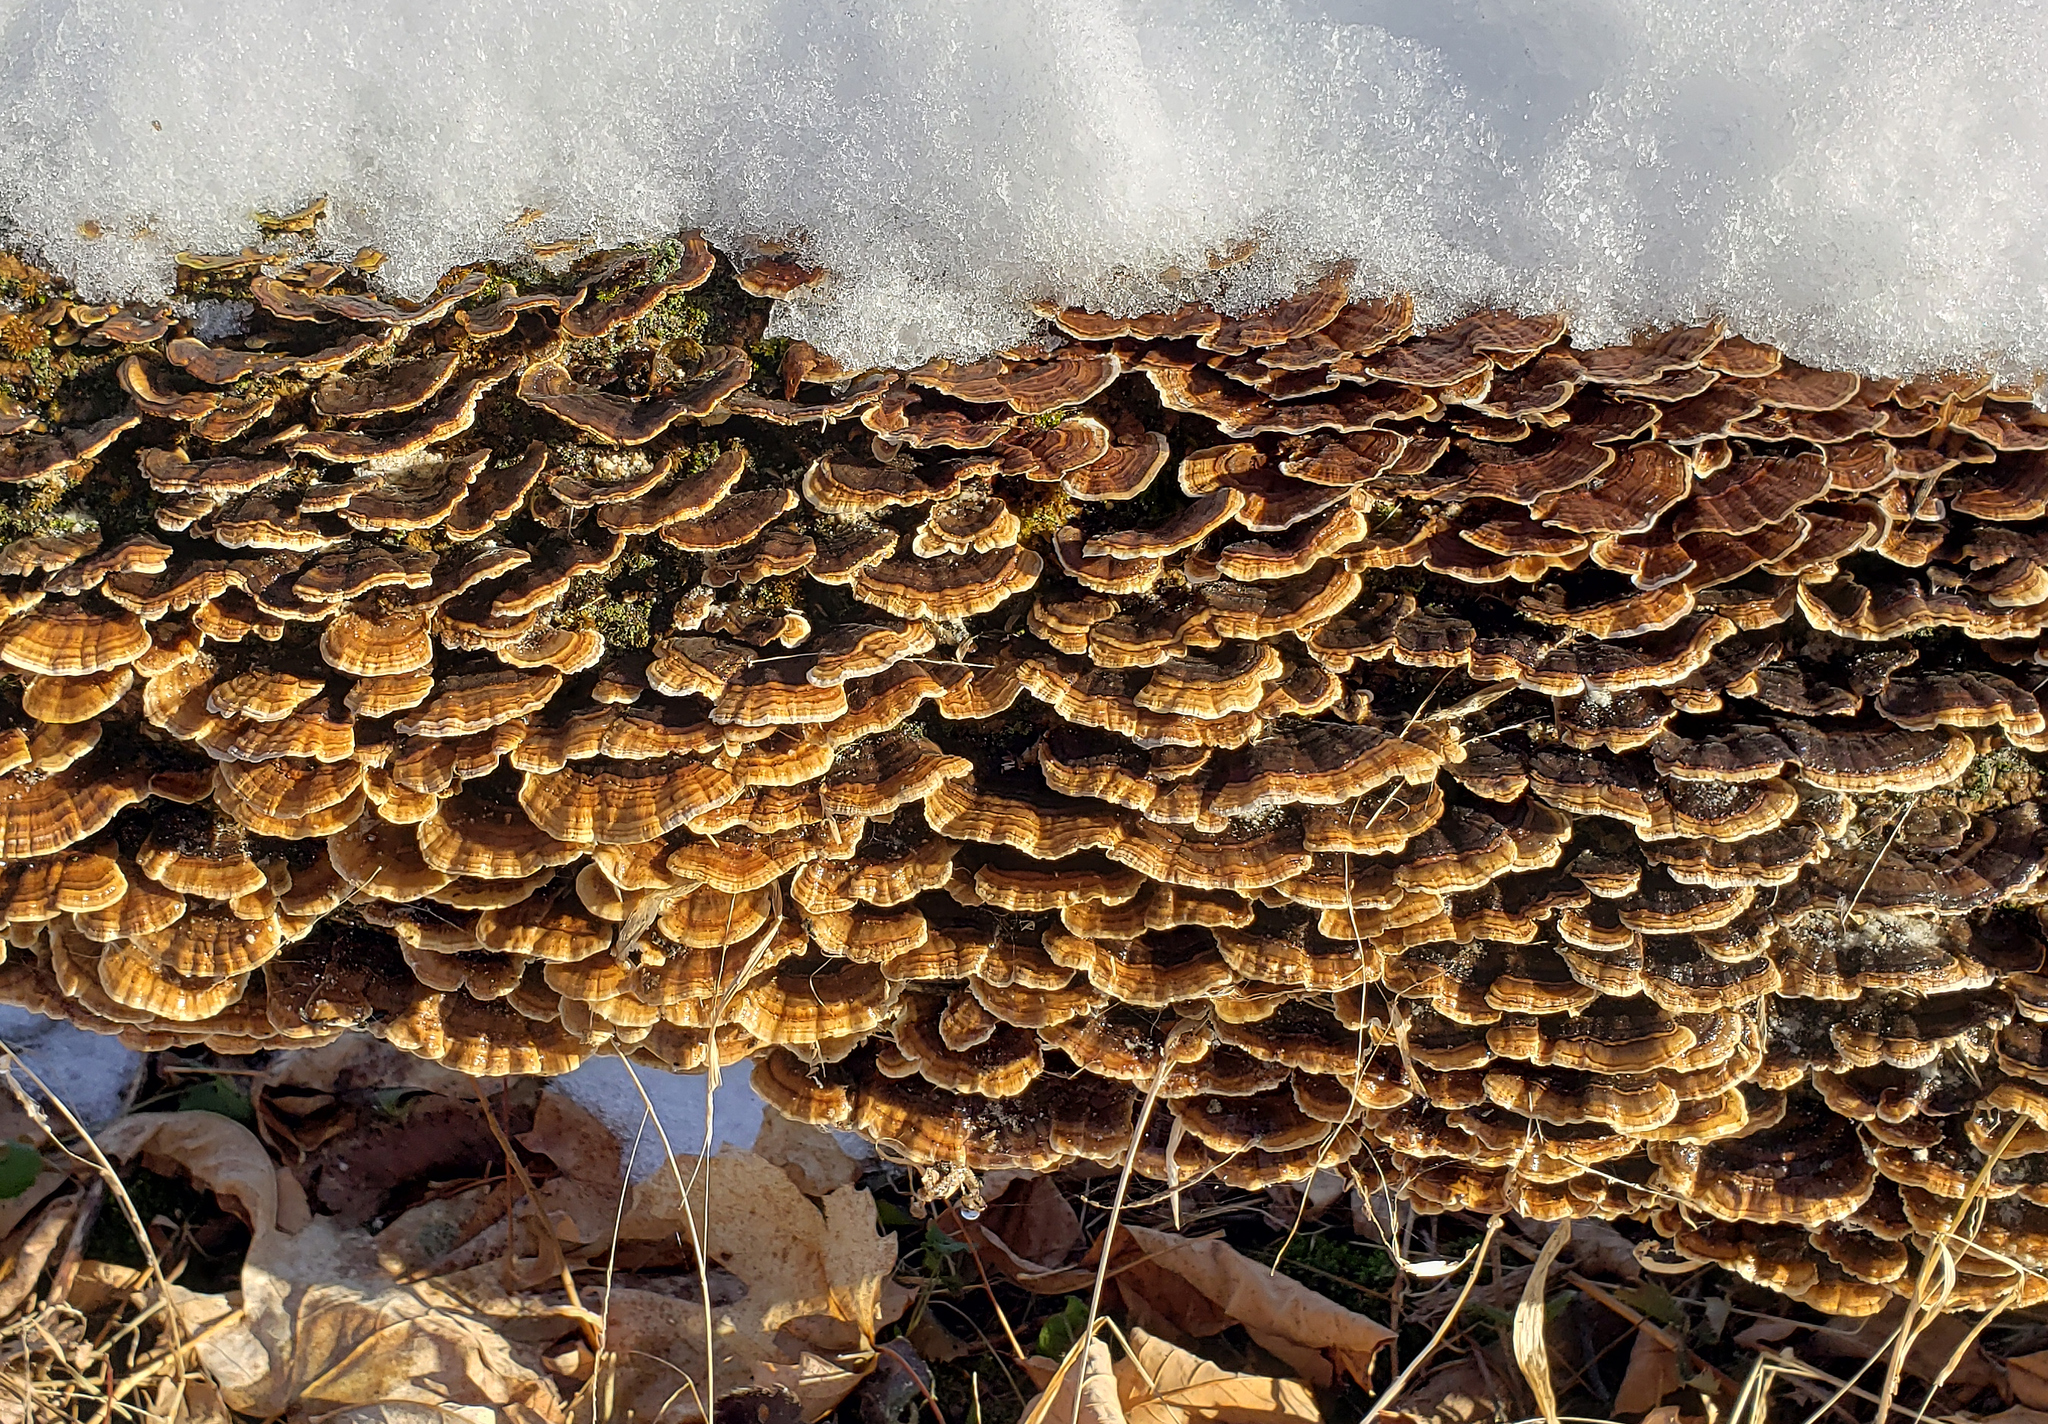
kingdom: Fungi
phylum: Basidiomycota
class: Agaricomycetes
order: Polyporales
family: Polyporaceae
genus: Trametes
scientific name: Trametes versicolor
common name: Turkeytail
